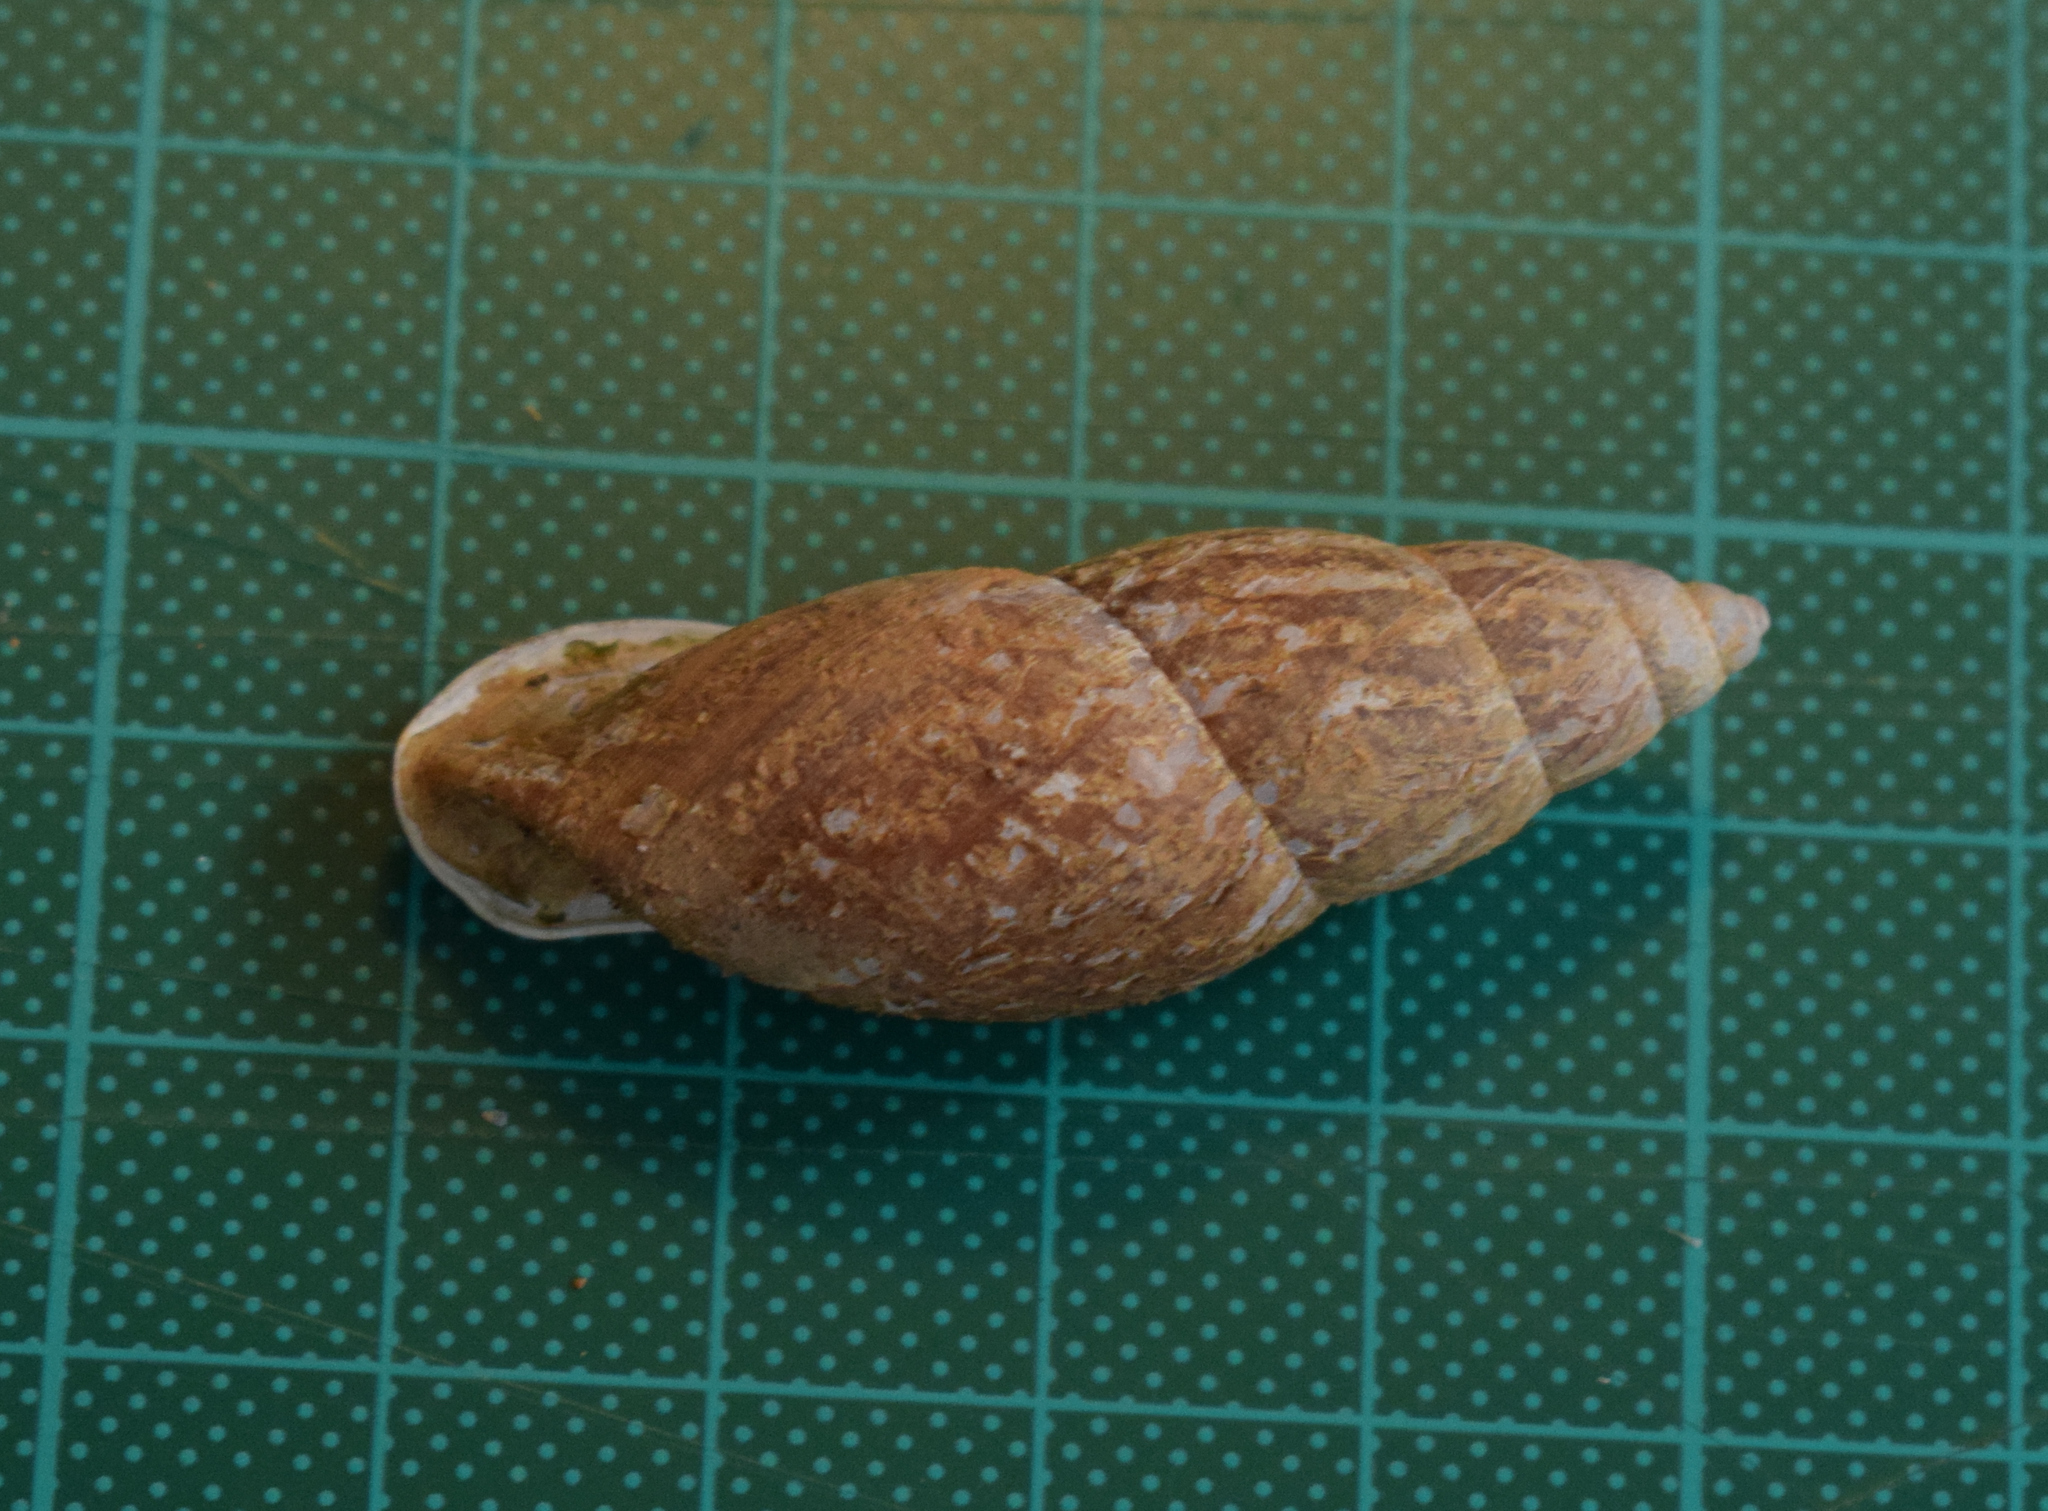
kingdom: Animalia
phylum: Mollusca
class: Gastropoda
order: Stylommatophora
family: Odontostomidae
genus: Odontostomus
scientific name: Odontostomus paulista
